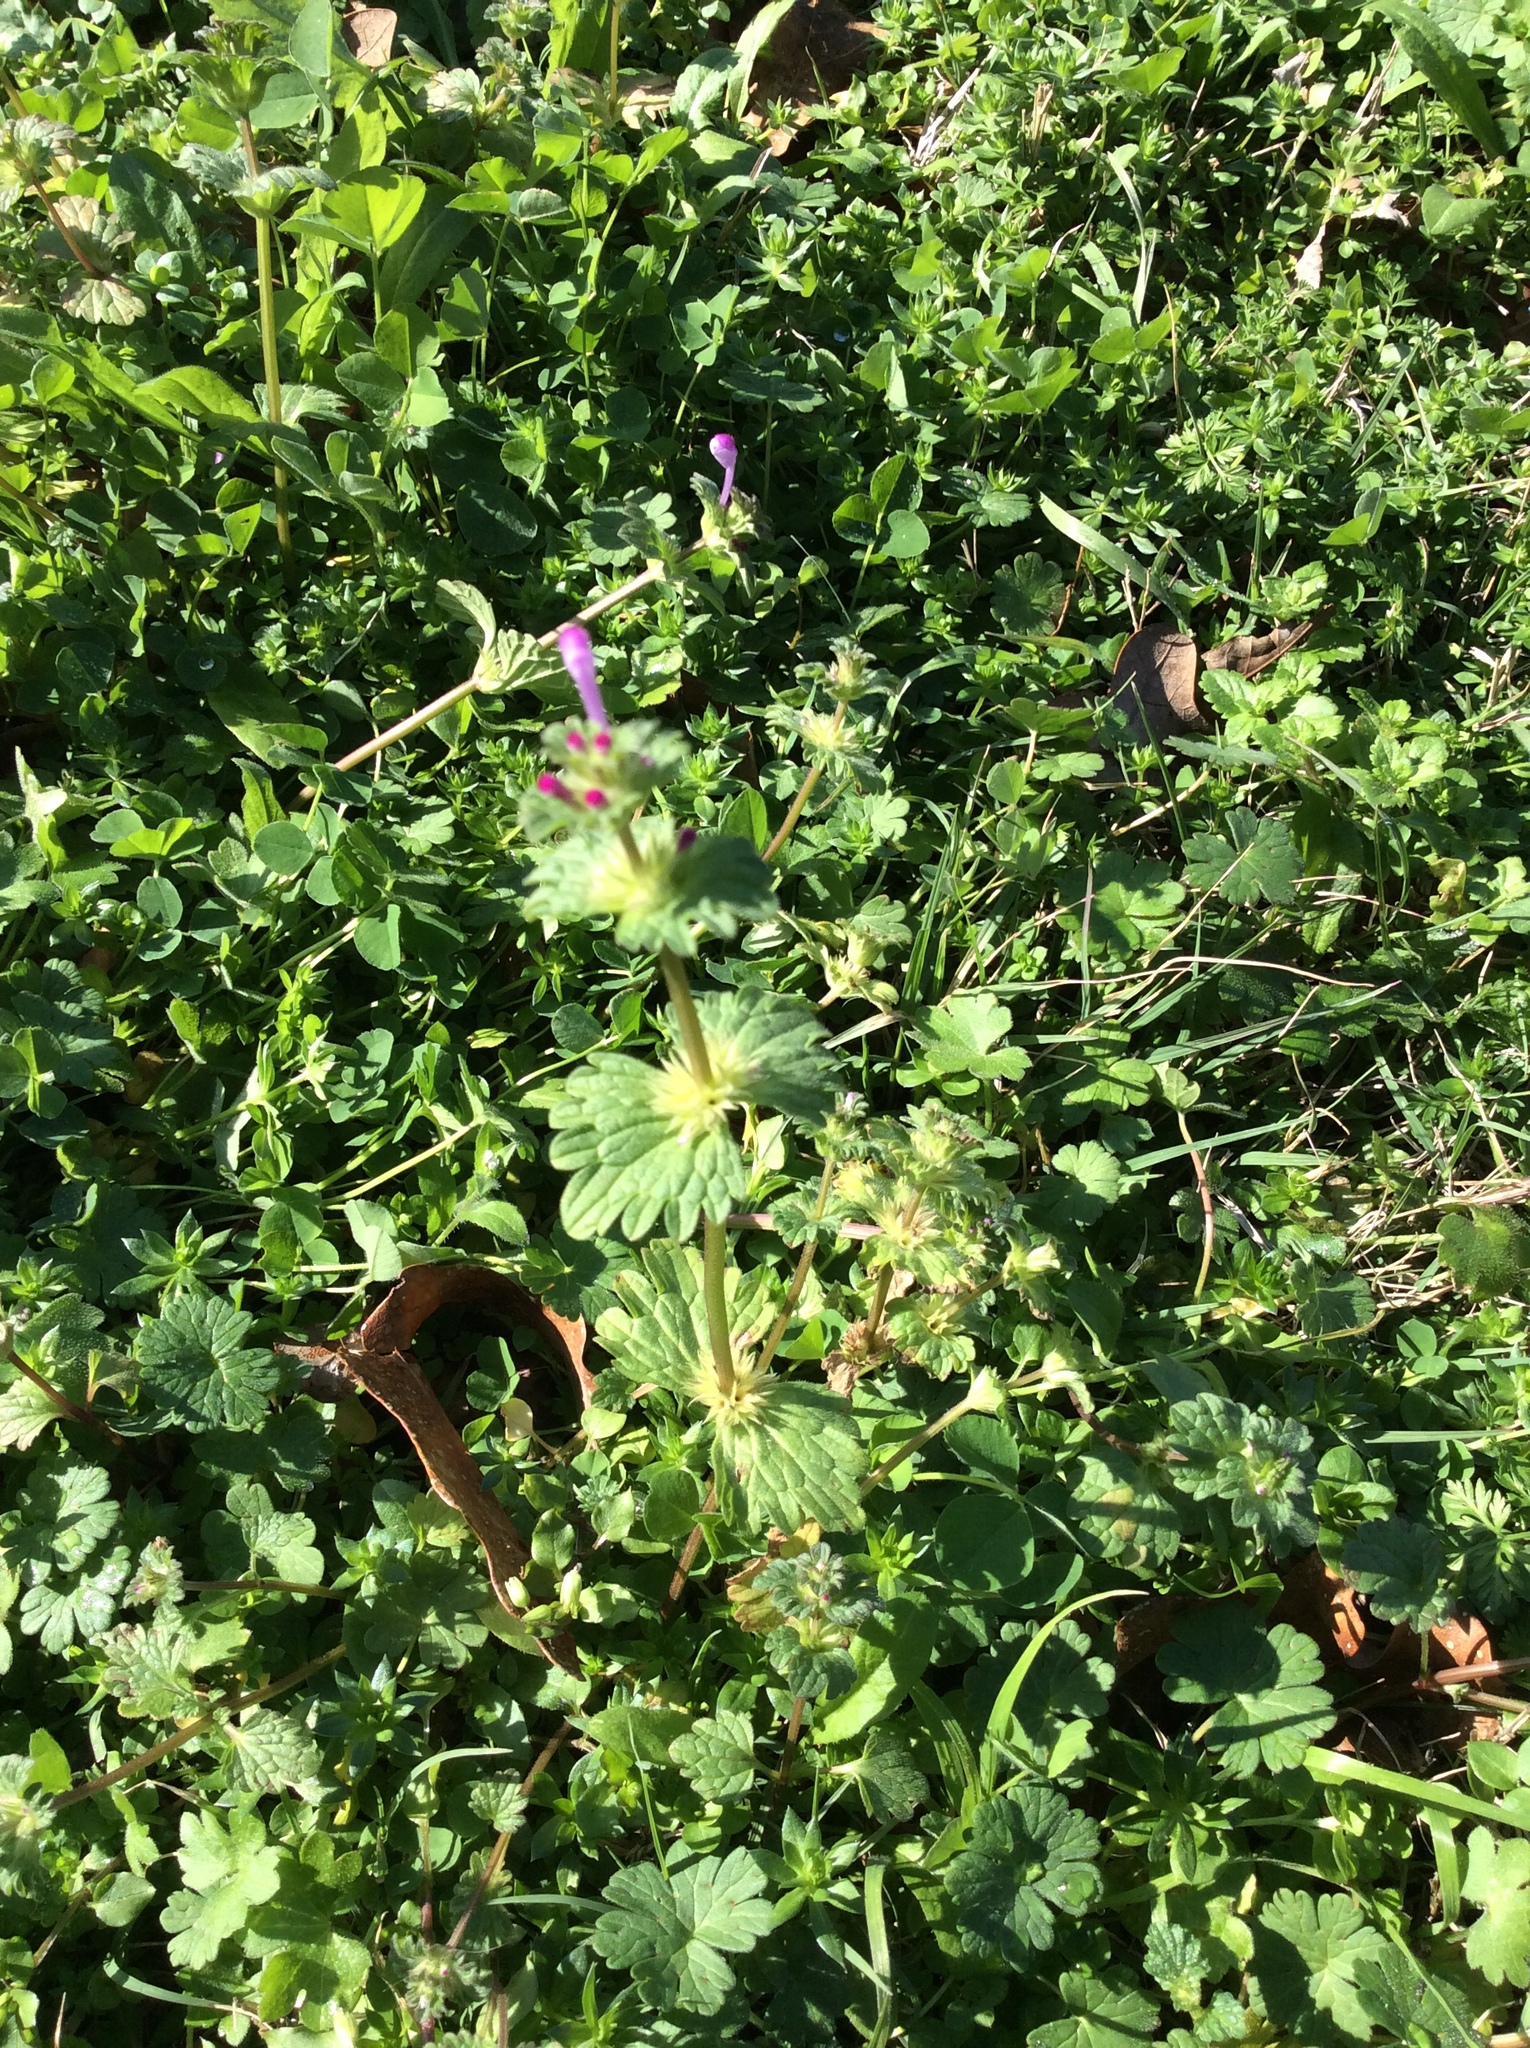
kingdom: Plantae
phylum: Tracheophyta
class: Magnoliopsida
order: Lamiales
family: Lamiaceae
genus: Lamium
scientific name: Lamium amplexicaule
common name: Henbit dead-nettle
